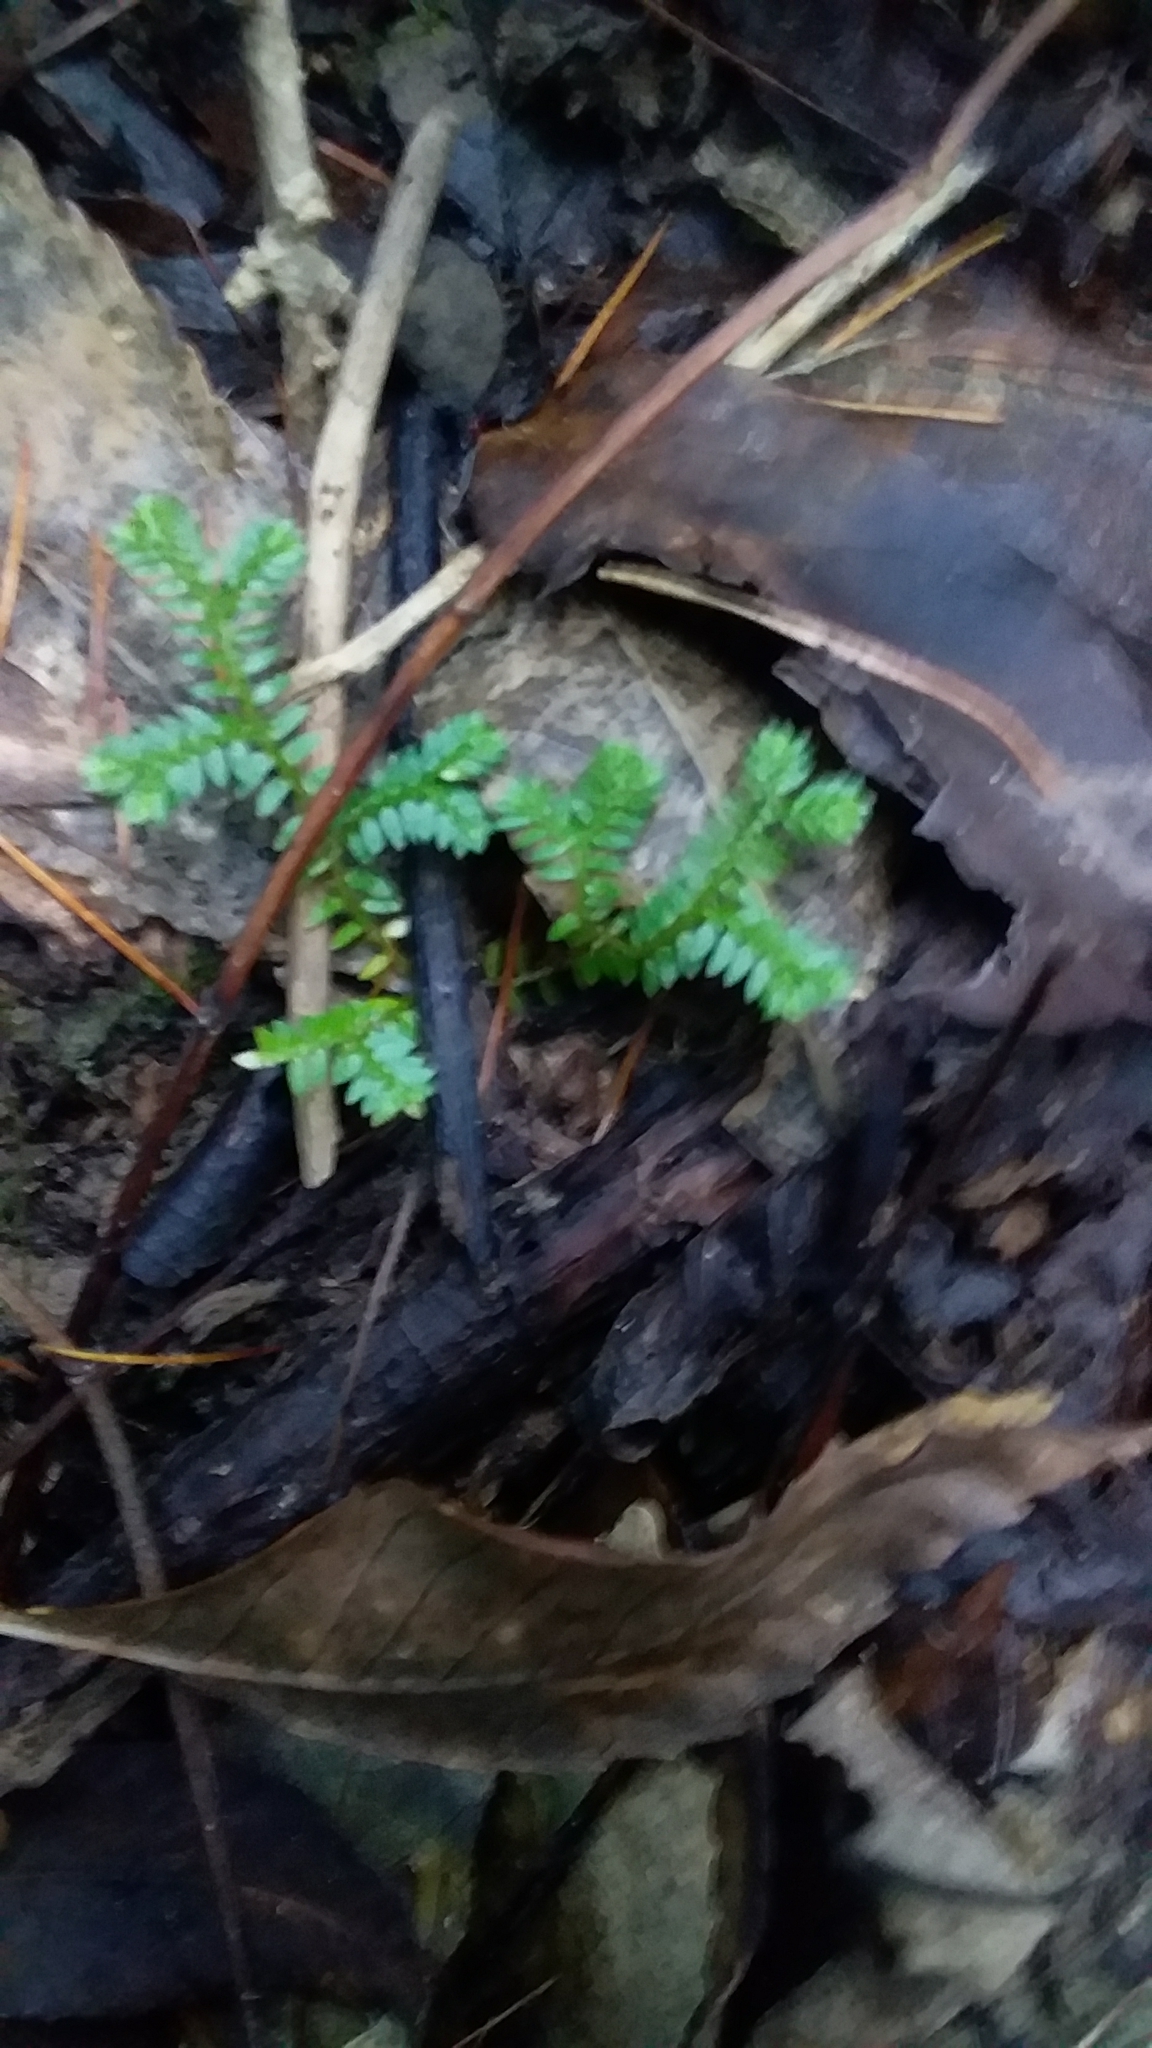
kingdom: Plantae
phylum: Tracheophyta
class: Lycopodiopsida
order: Selaginellales
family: Selaginellaceae
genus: Selaginella
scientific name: Selaginella kraussiana
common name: Krauss' spikemoss
